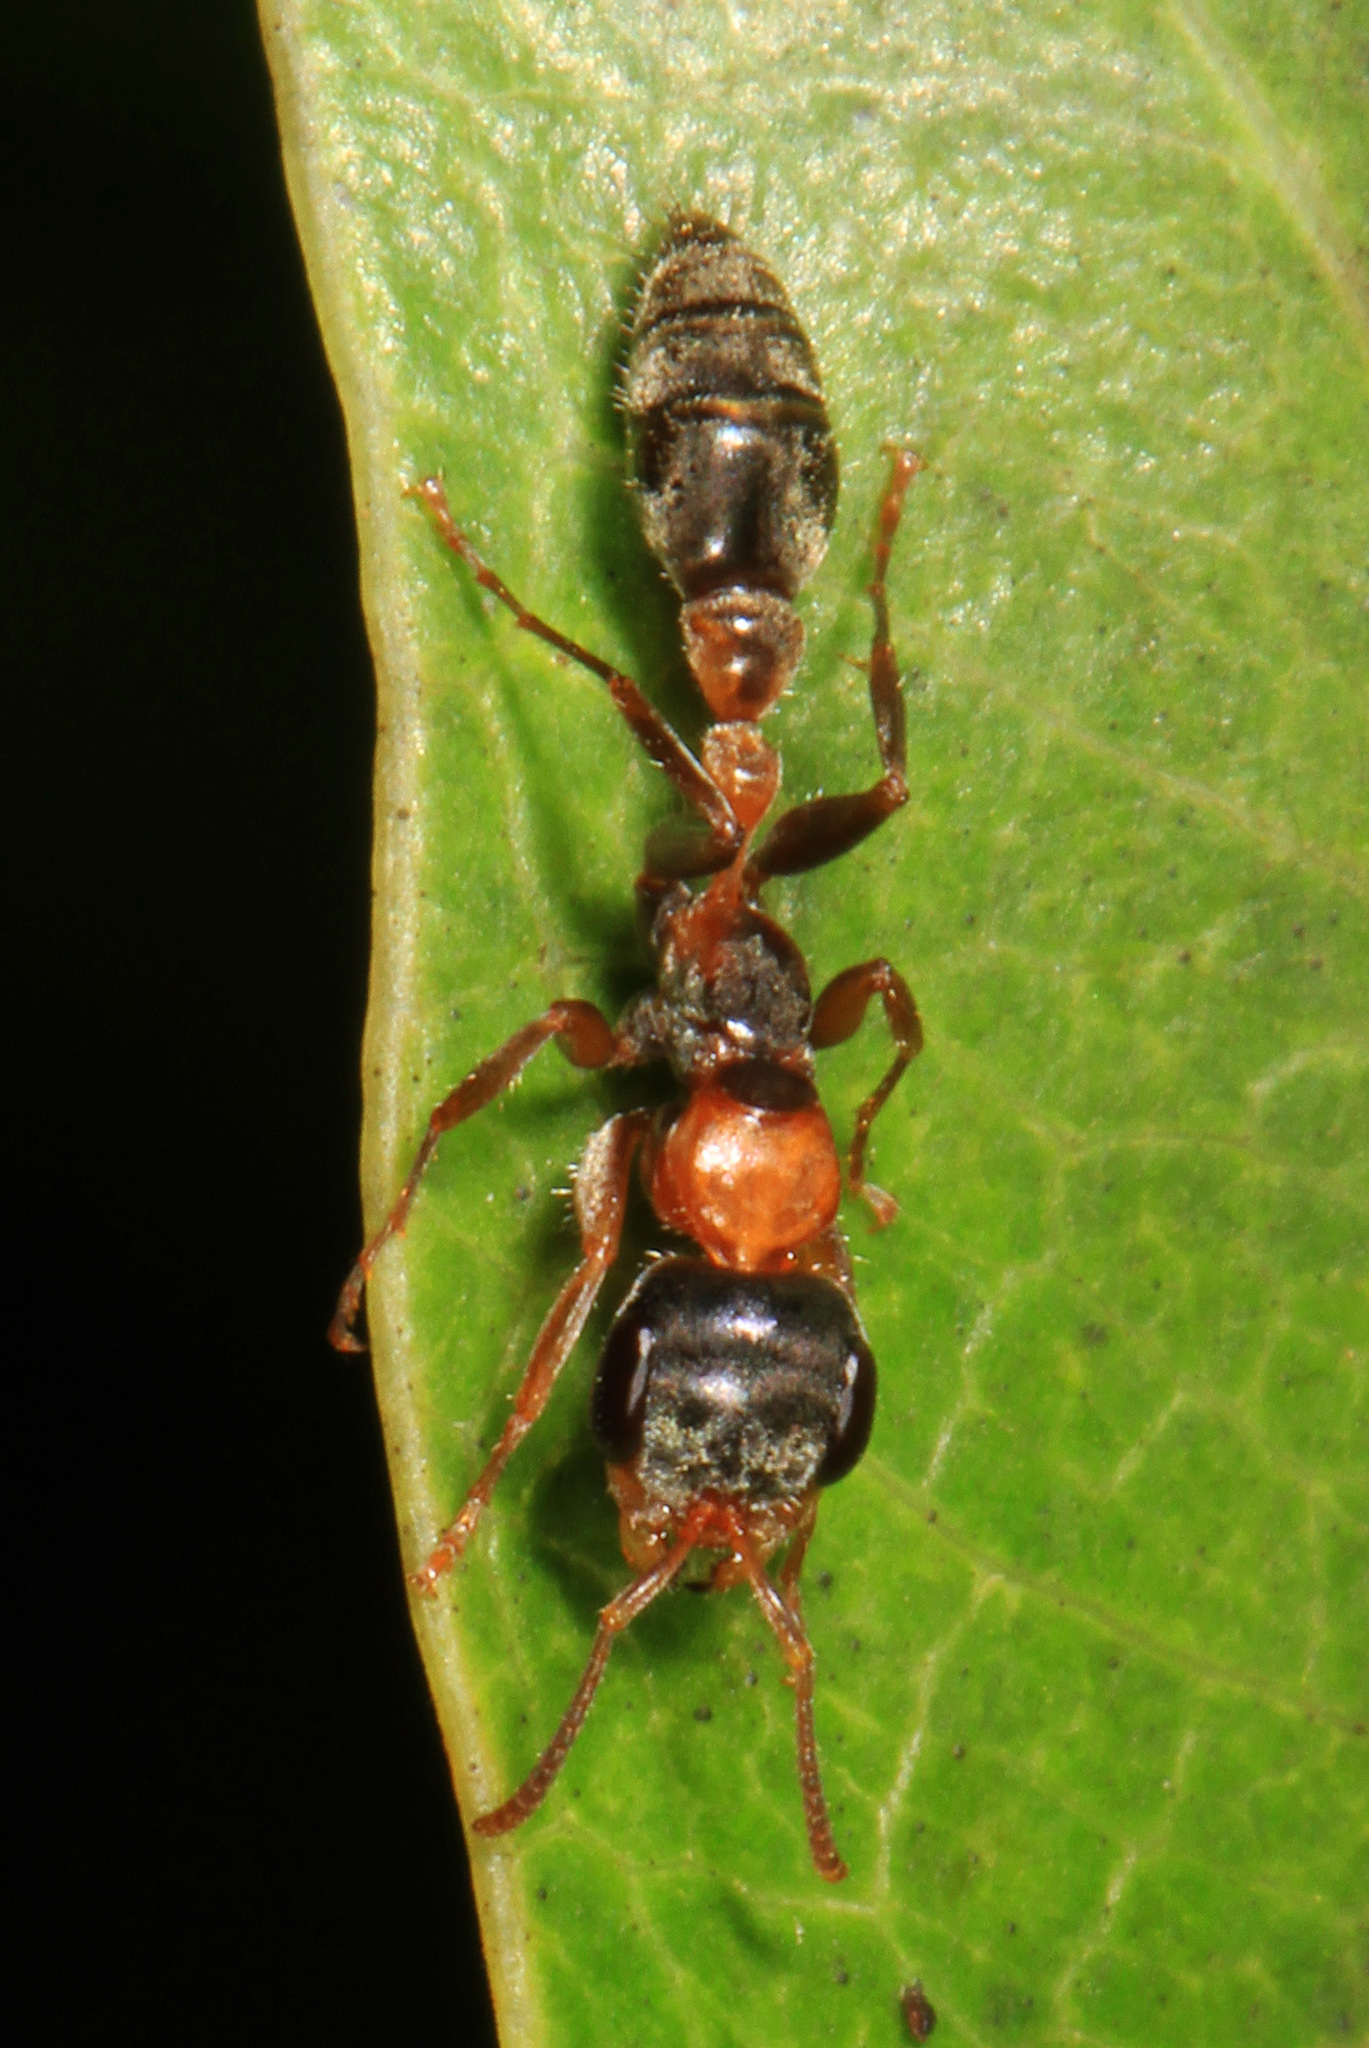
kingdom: Animalia
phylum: Arthropoda
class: Insecta
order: Hymenoptera
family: Formicidae
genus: Pseudomyrmex
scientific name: Pseudomyrmex gracilis
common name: Graceful twig ant
